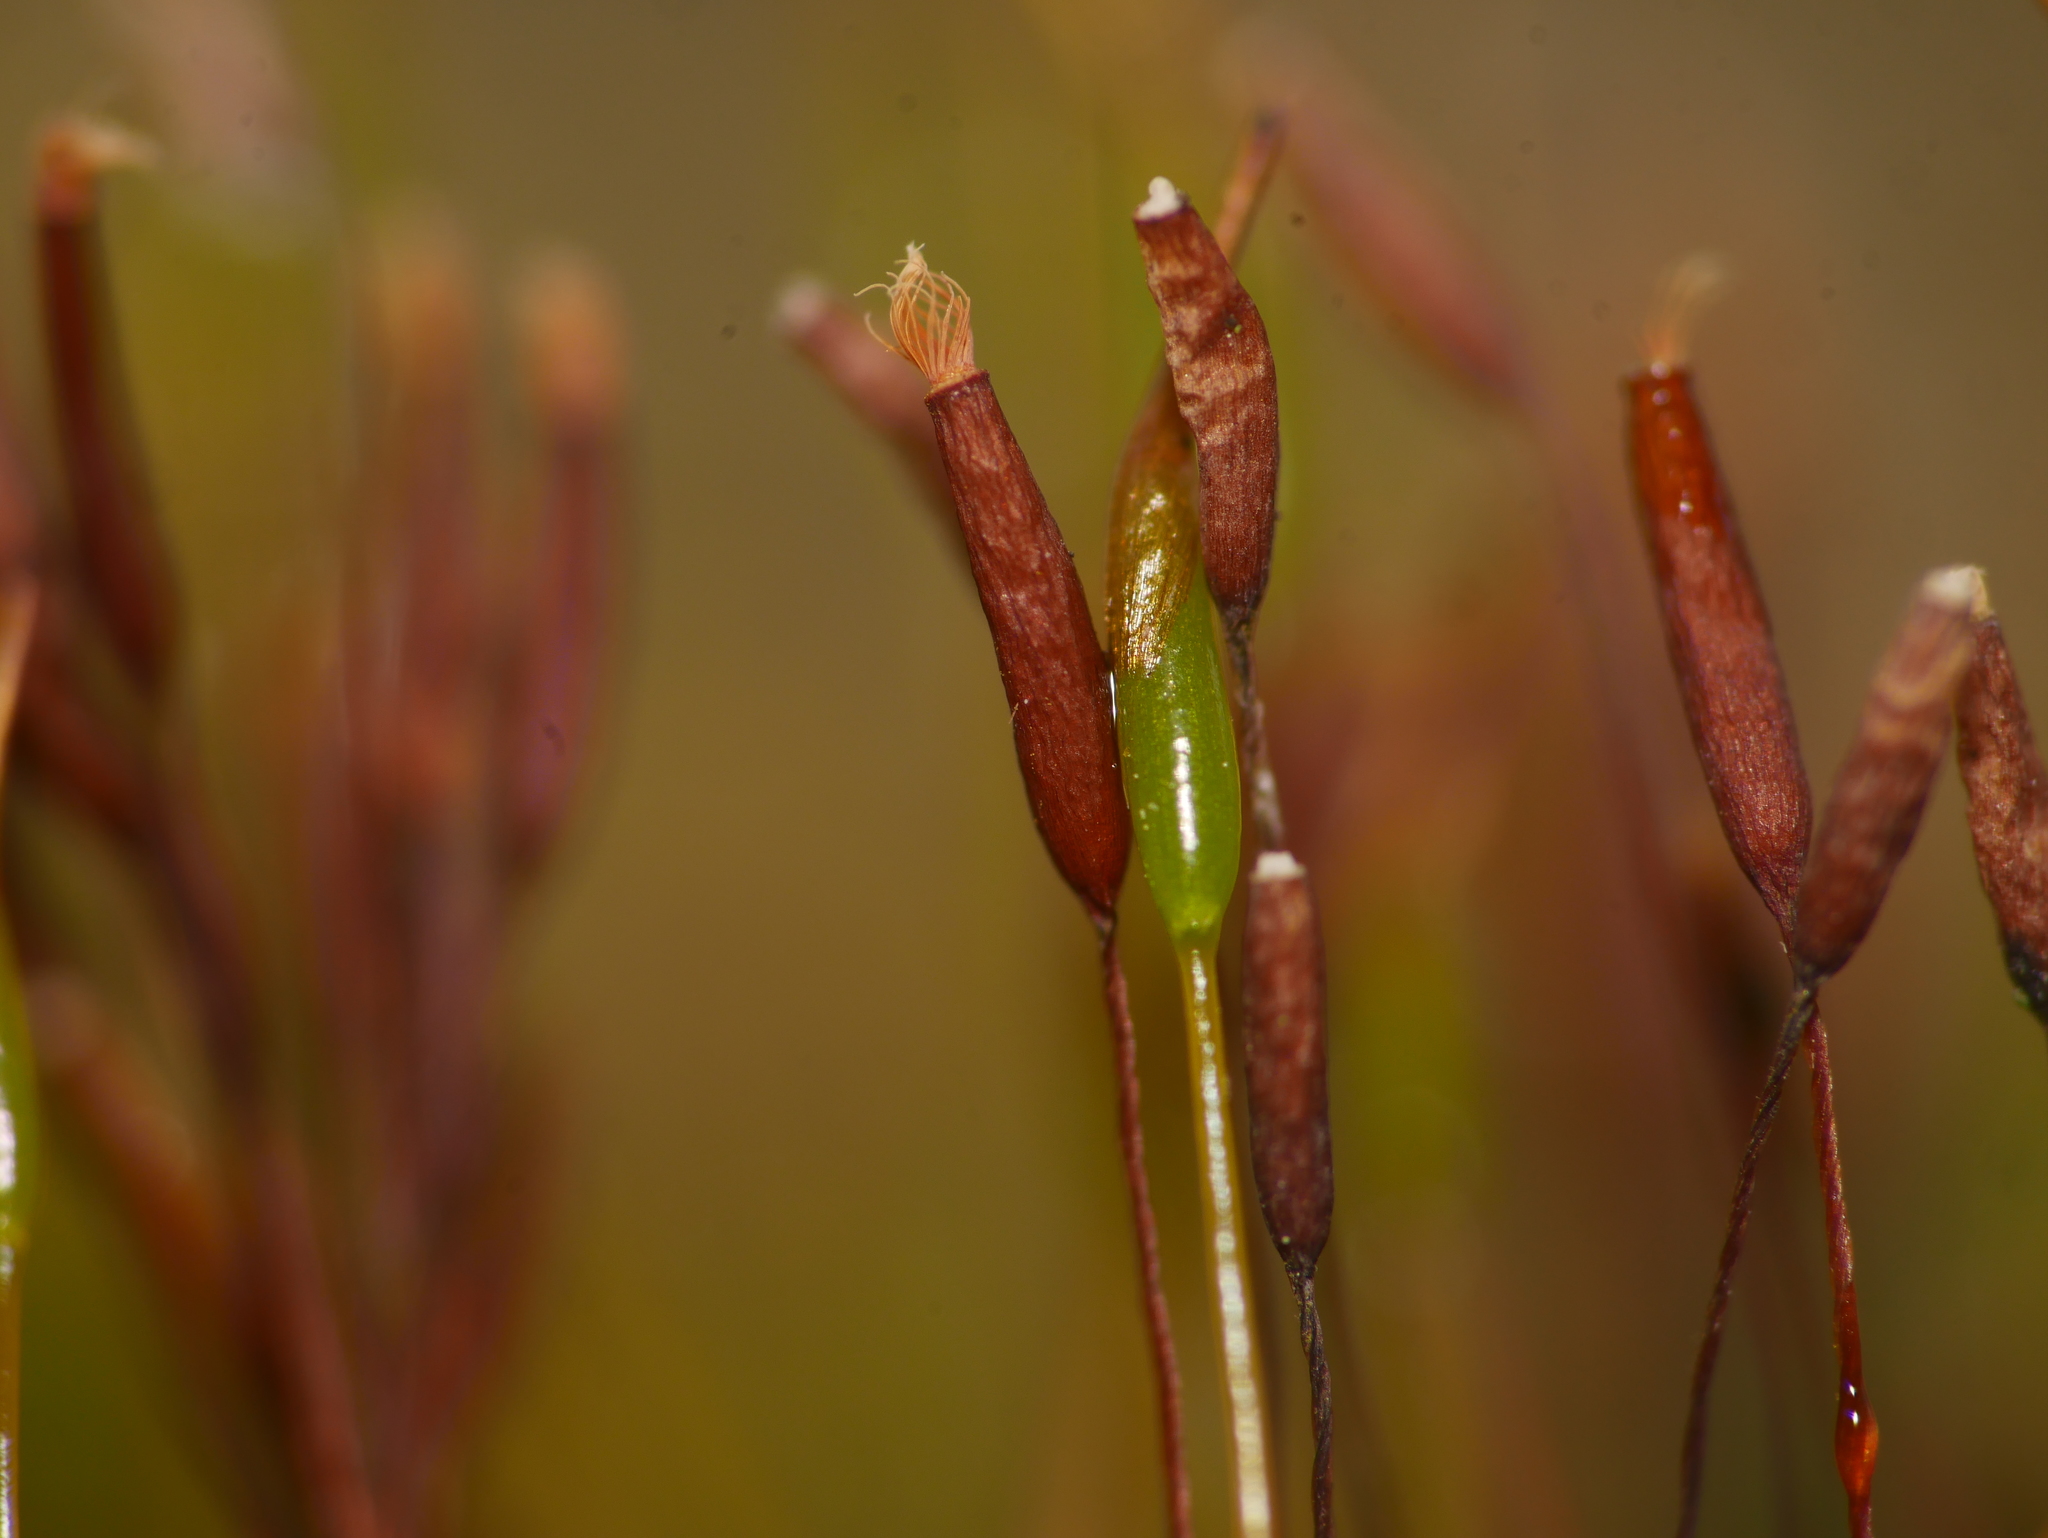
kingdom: Plantae
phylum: Bryophyta
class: Bryopsida
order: Pottiales
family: Pottiaceae
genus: Tortula
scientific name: Tortula muralis
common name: Wall screw-moss
